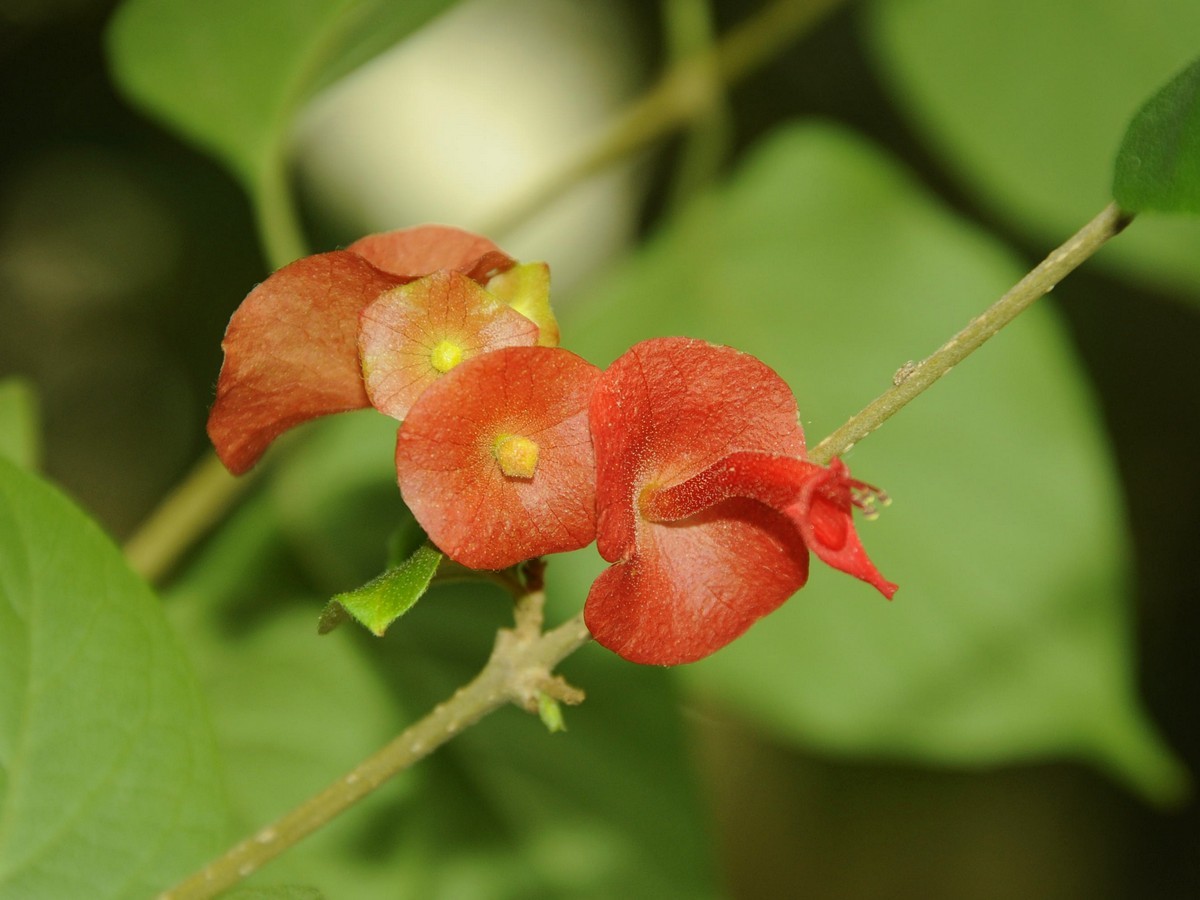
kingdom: Plantae
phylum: Tracheophyta
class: Magnoliopsida
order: Lamiales
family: Lamiaceae
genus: Holmskioldia
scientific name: Holmskioldia sanguinea
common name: Chinese hatplant
